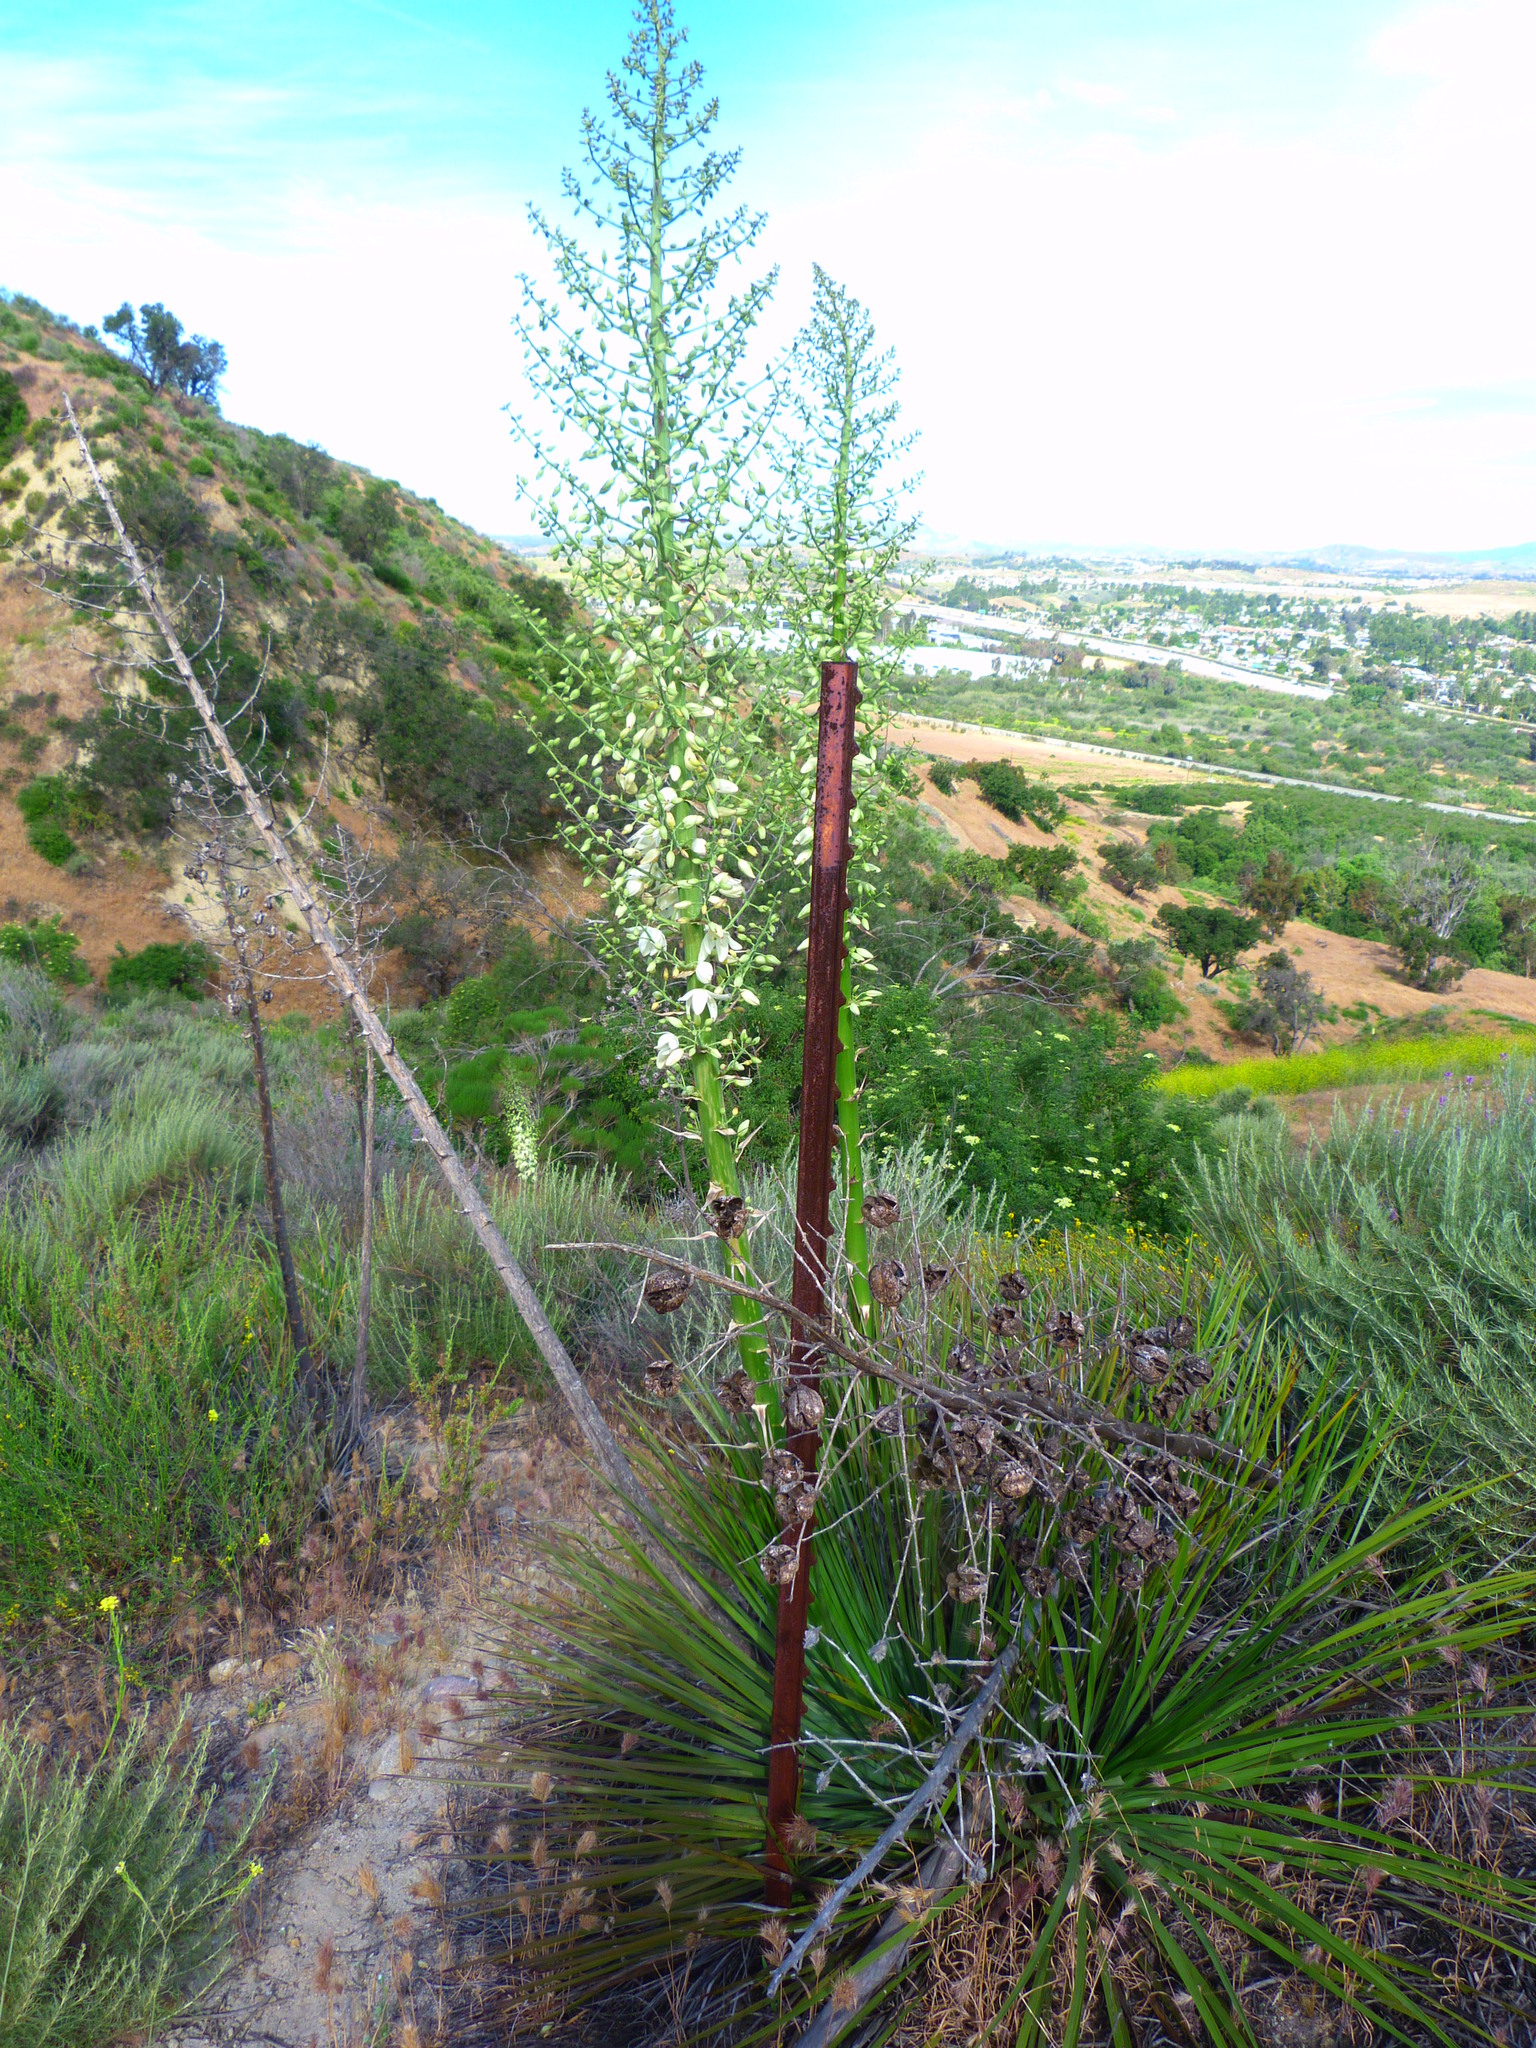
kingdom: Plantae
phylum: Tracheophyta
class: Liliopsida
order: Asparagales
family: Asparagaceae
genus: Hesperoyucca
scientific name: Hesperoyucca whipplei
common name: Our lord's-candle
